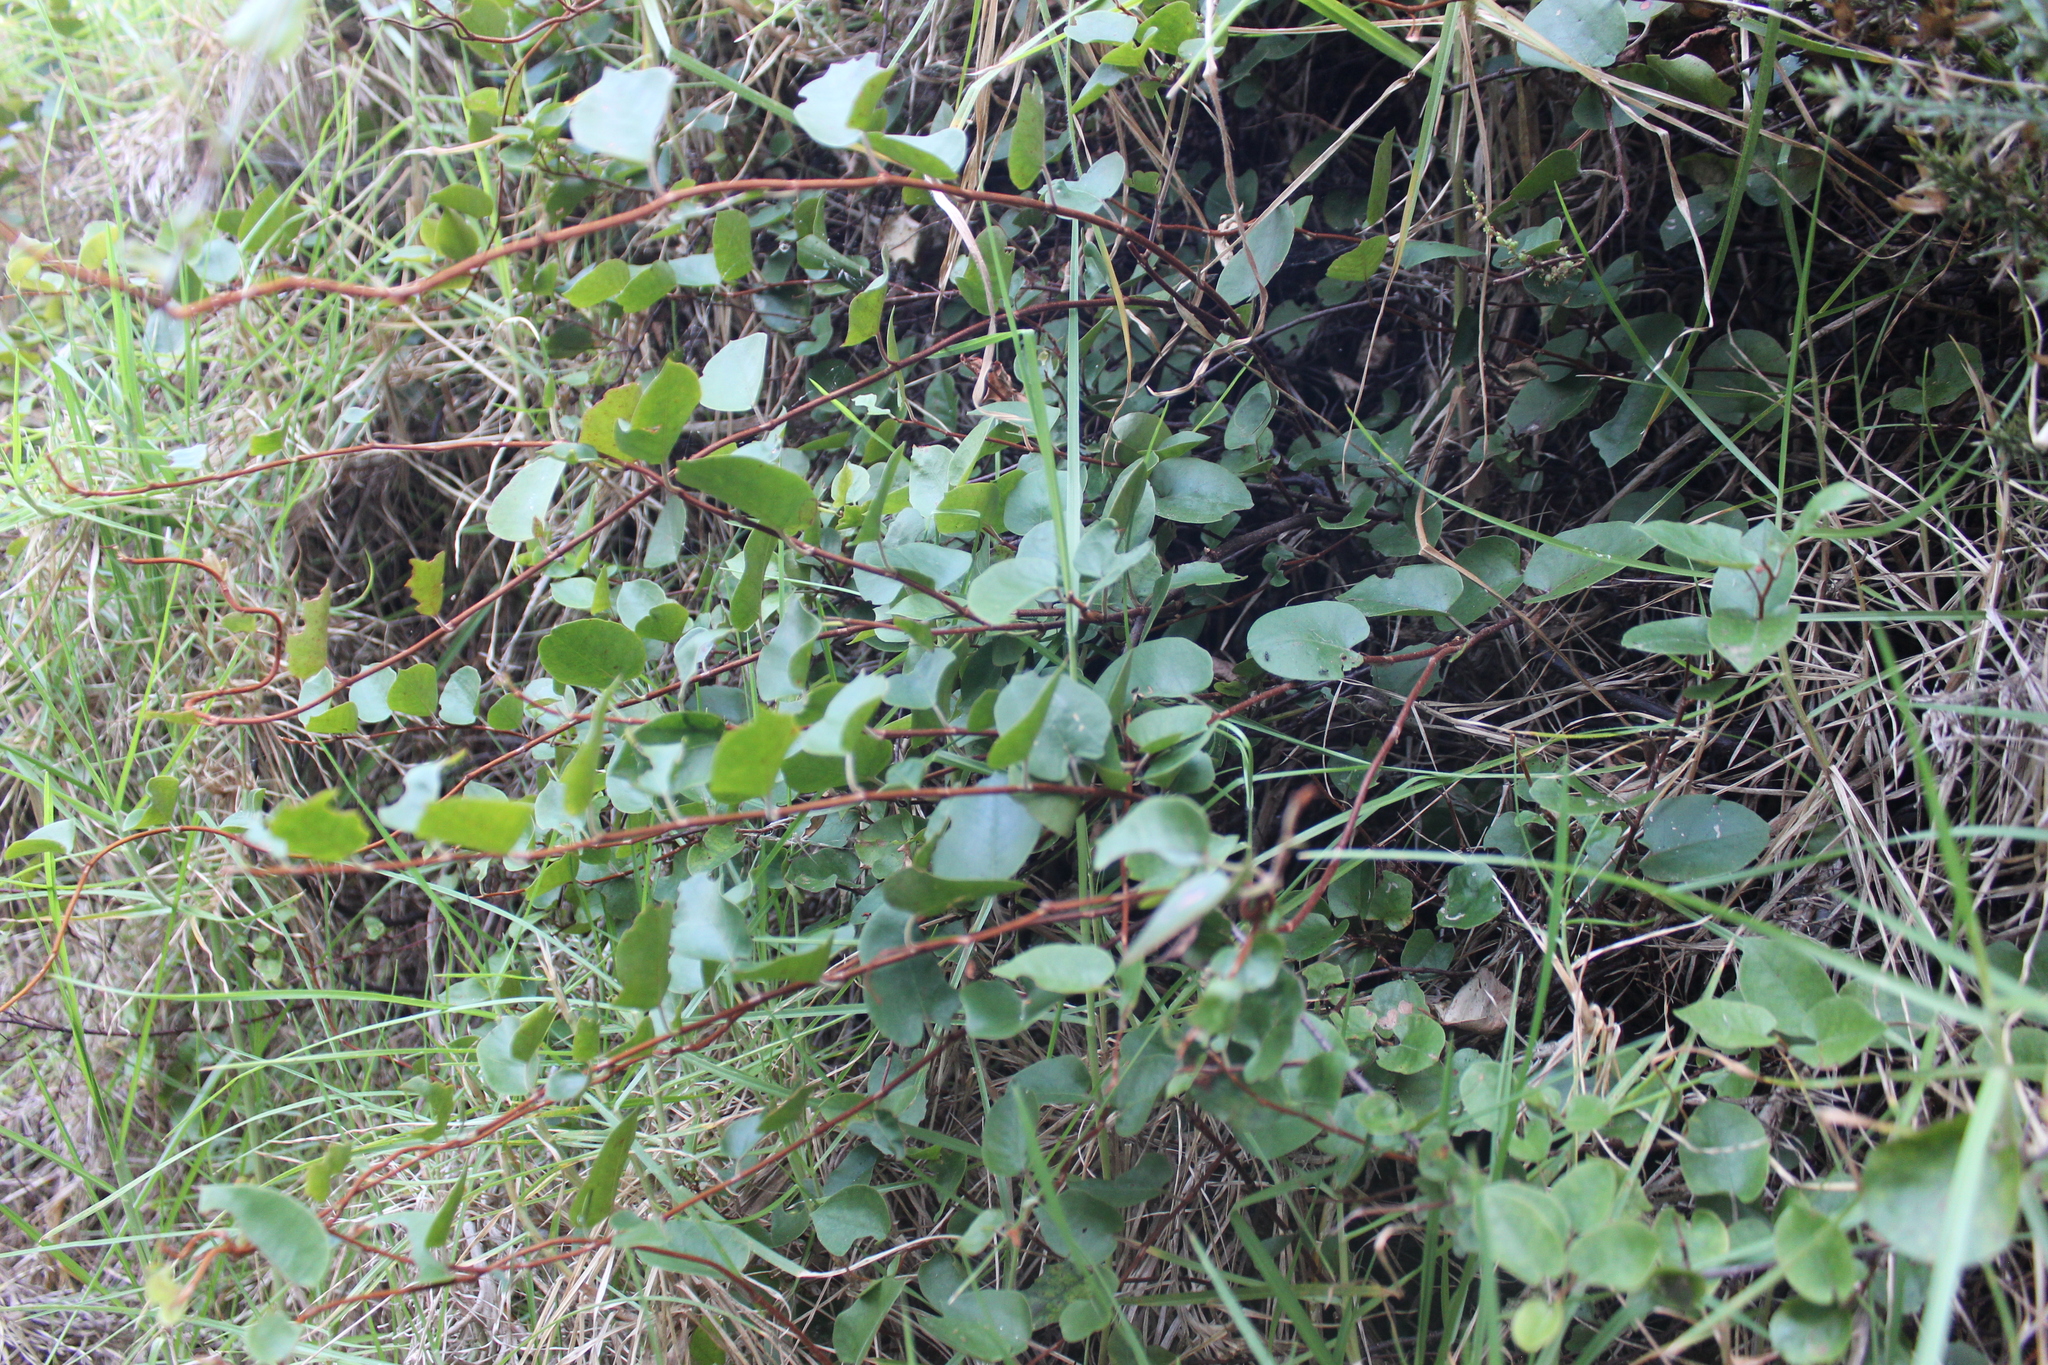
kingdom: Plantae
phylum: Tracheophyta
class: Magnoliopsida
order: Caryophyllales
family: Polygonaceae
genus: Muehlenbeckia
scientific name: Muehlenbeckia australis
